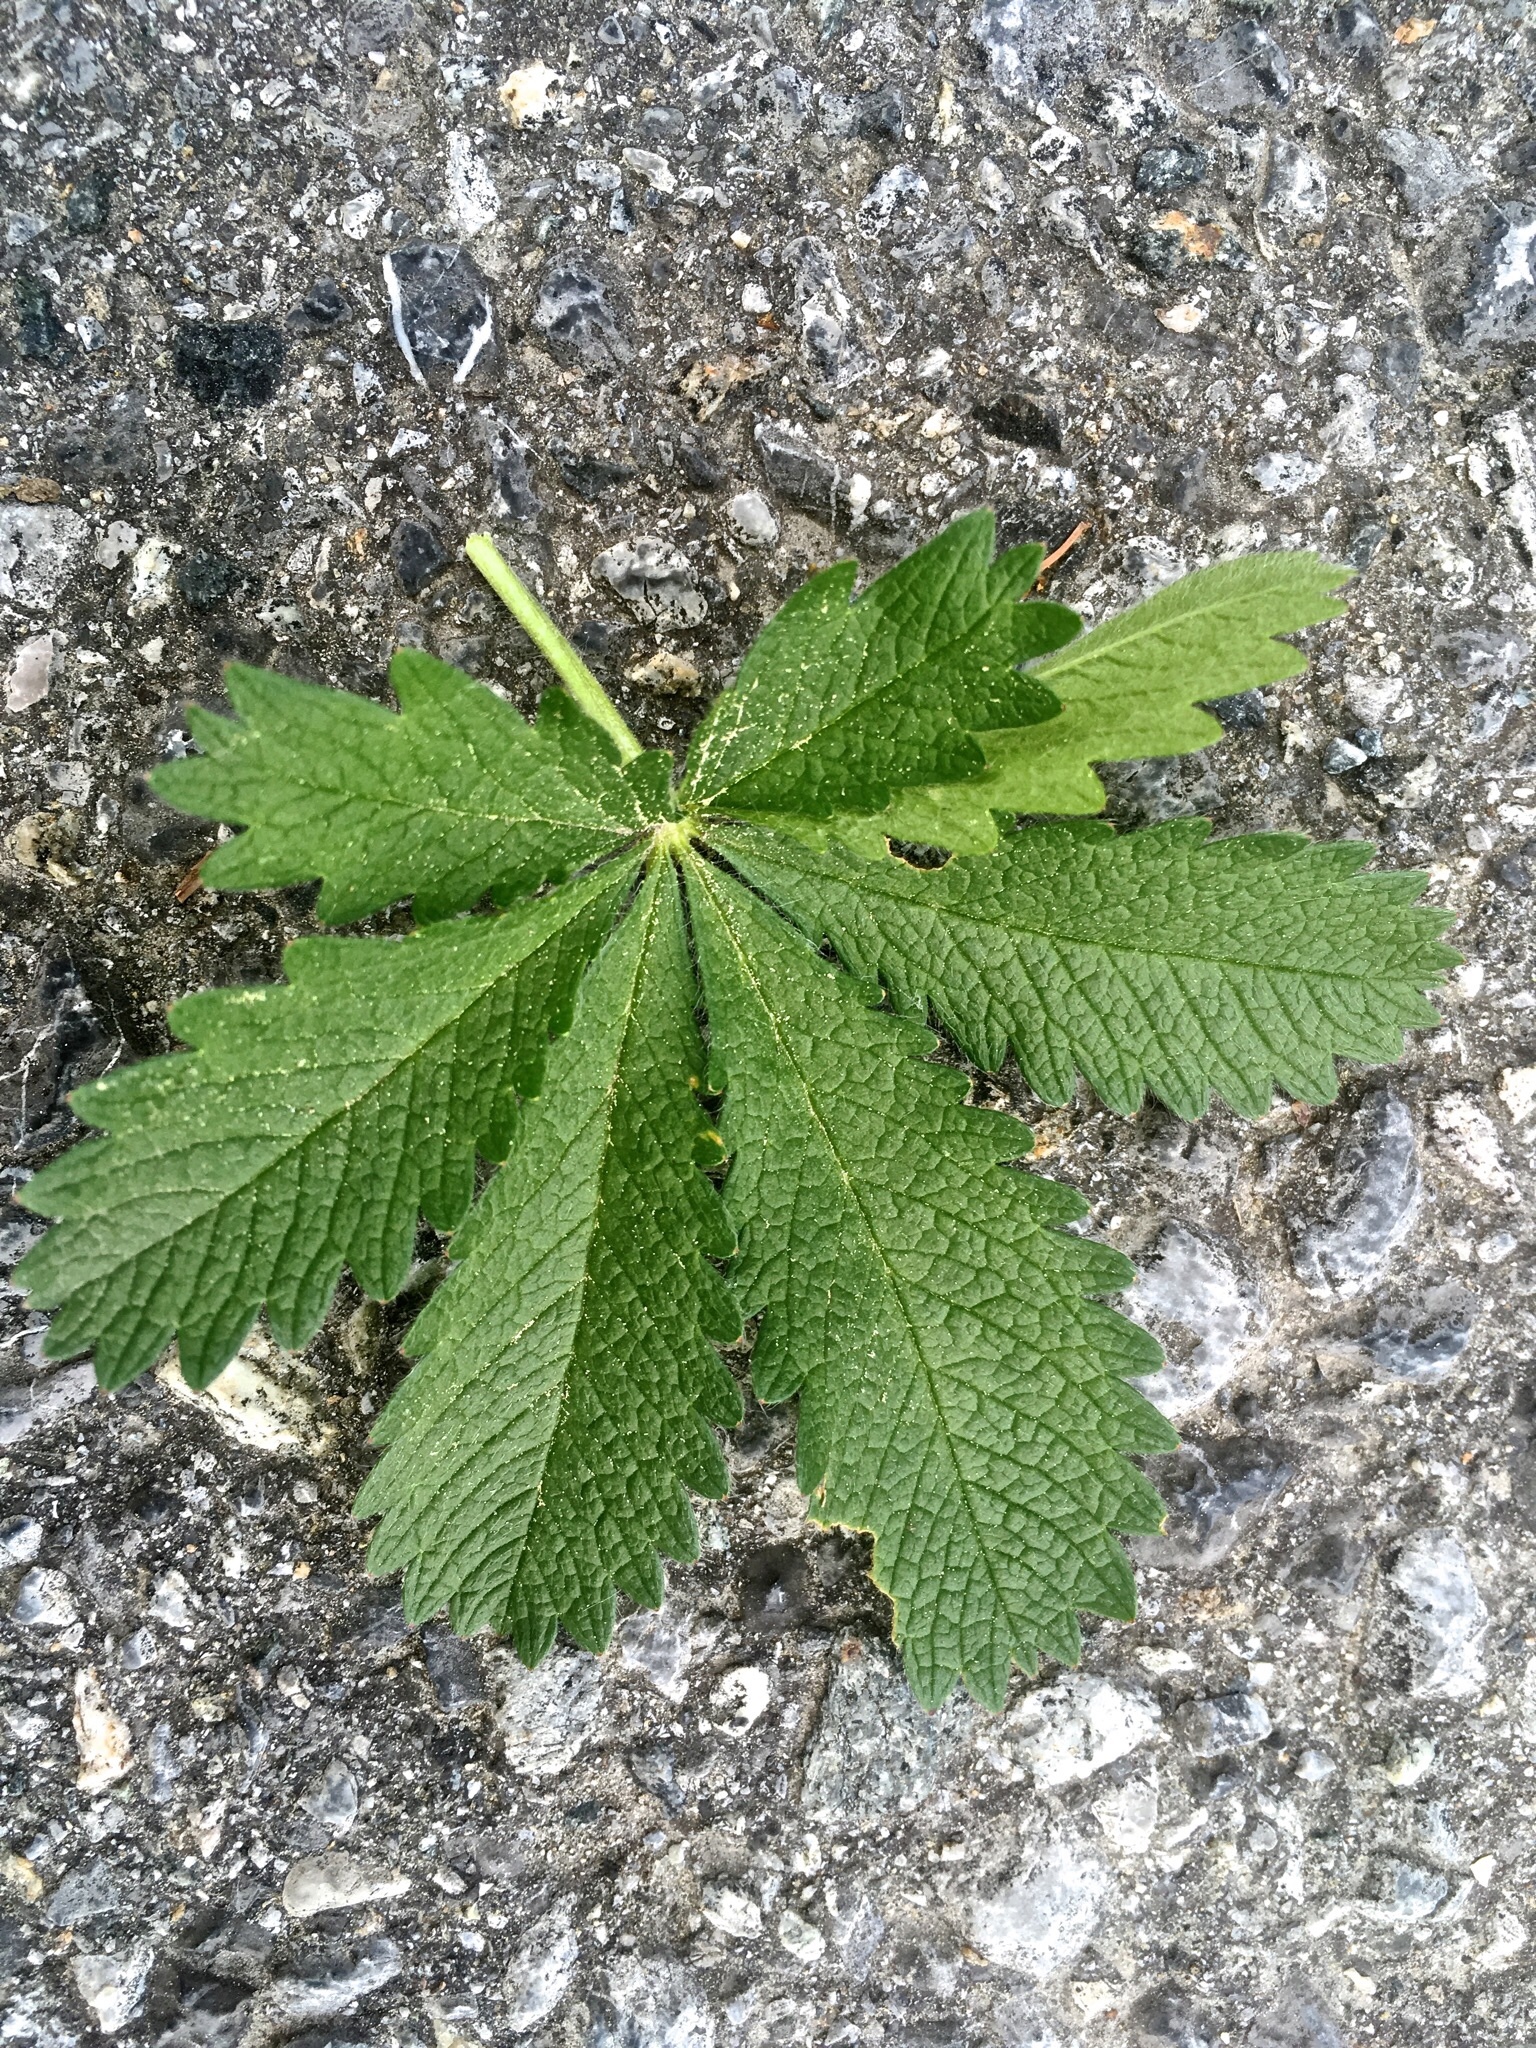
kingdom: Plantae
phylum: Tracheophyta
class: Magnoliopsida
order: Rosales
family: Rosaceae
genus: Potentilla
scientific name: Potentilla recta
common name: Sulphur cinquefoil
